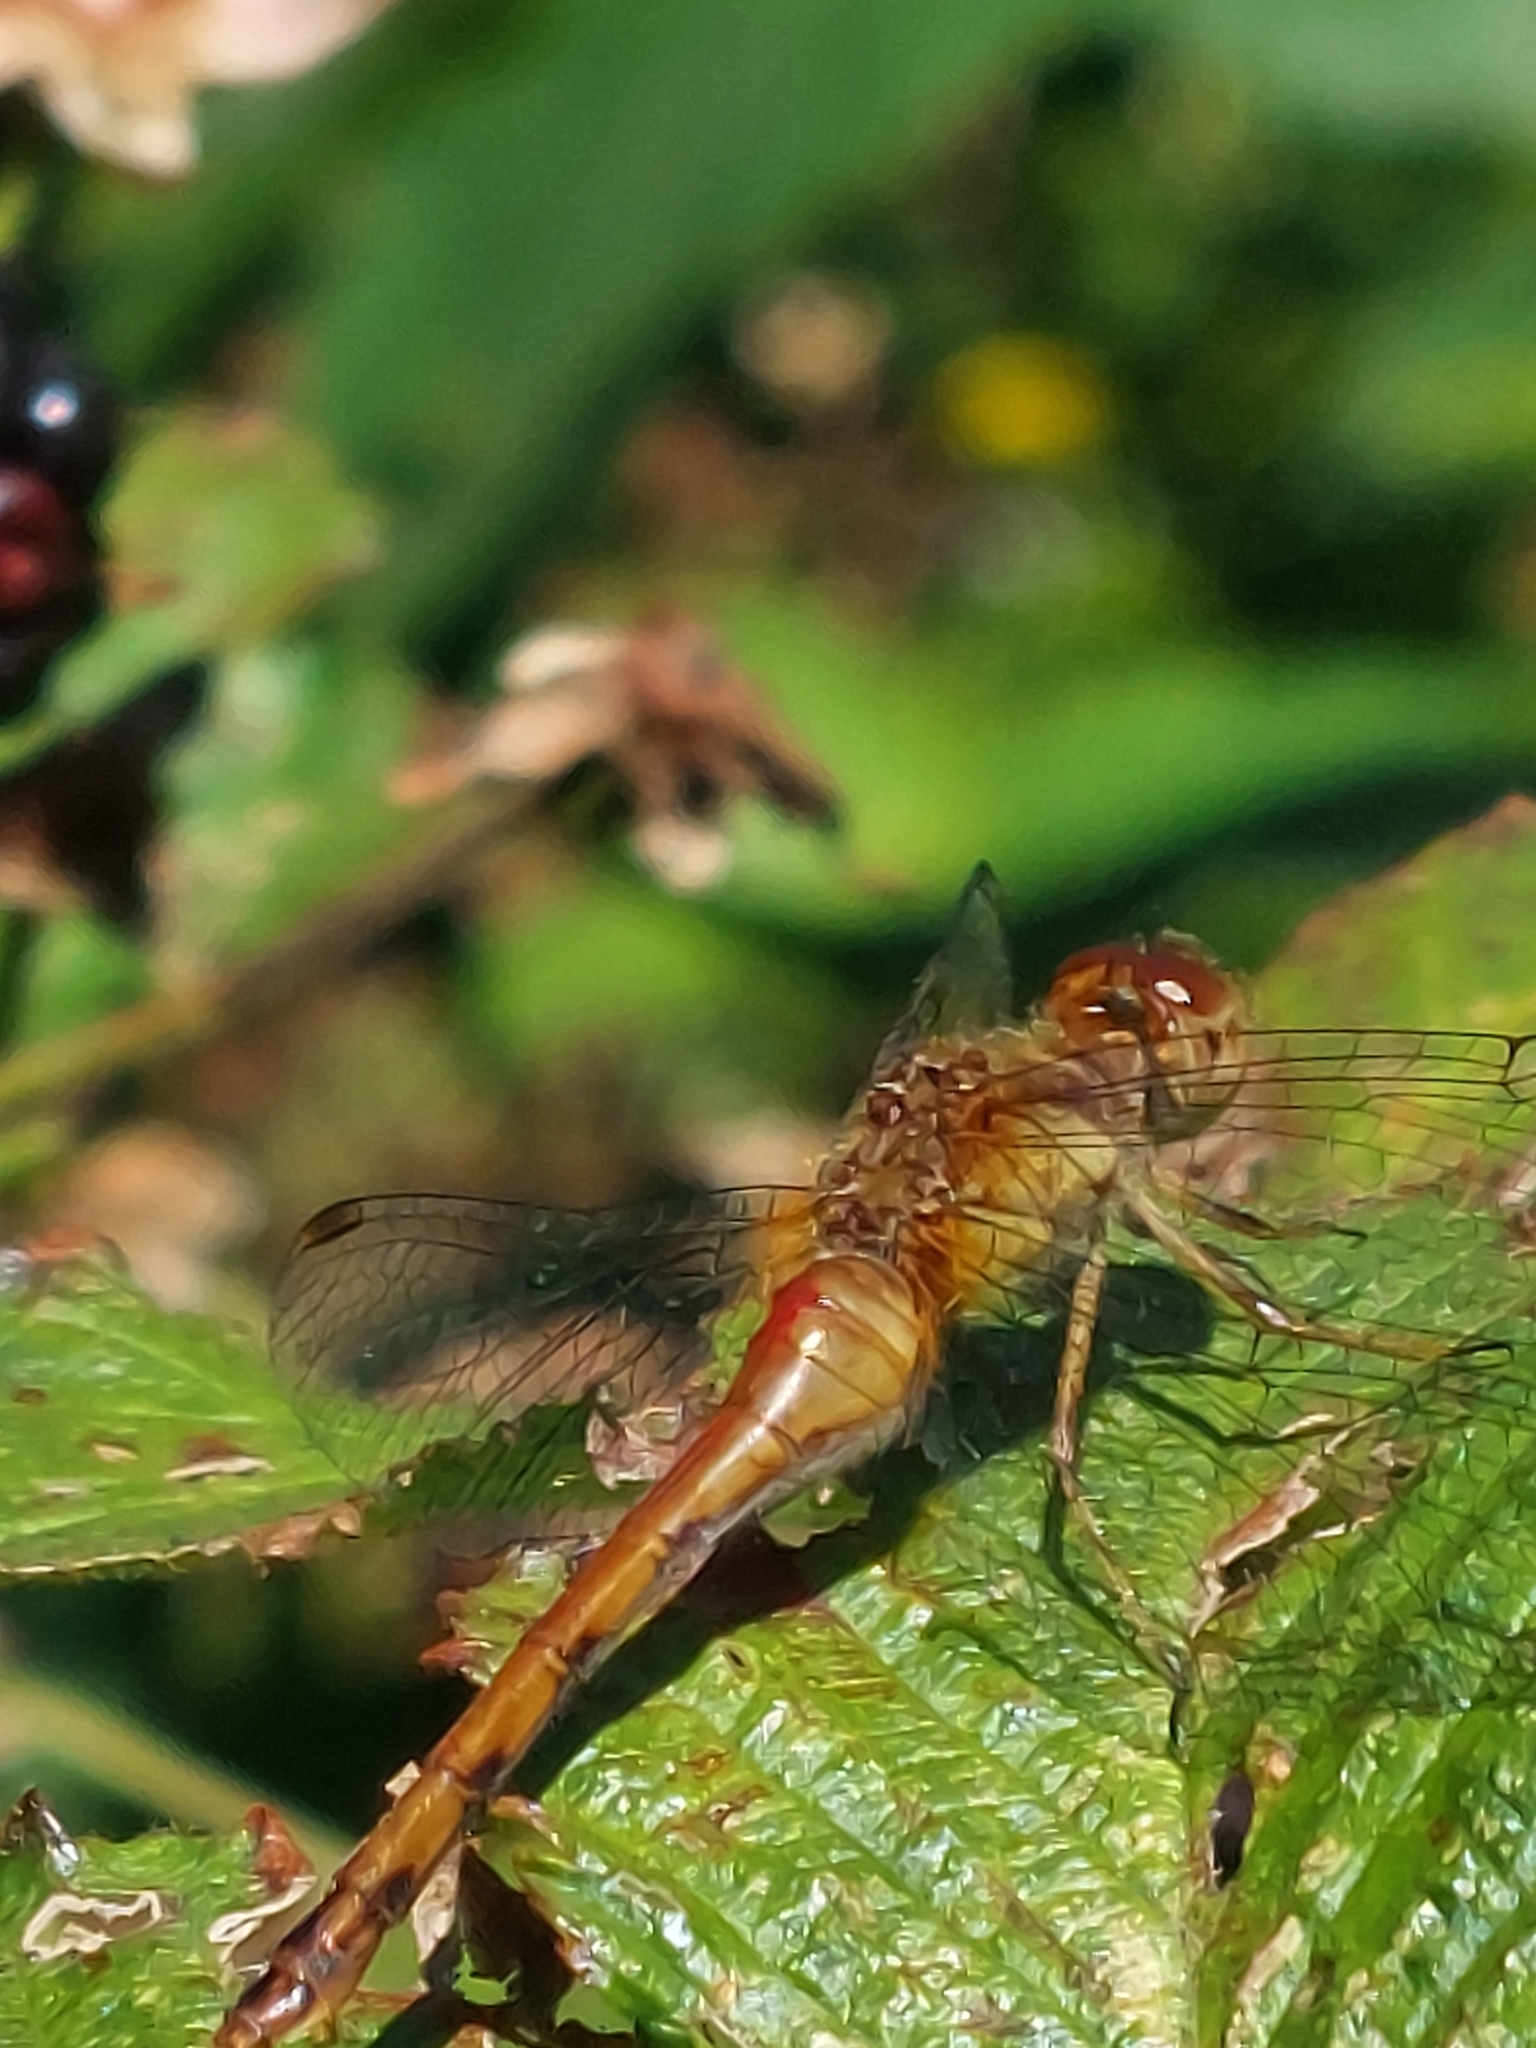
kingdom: Animalia
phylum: Arthropoda
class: Insecta
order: Odonata
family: Libellulidae
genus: Sympetrum
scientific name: Sympetrum vicinum
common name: Autumn meadowhawk
